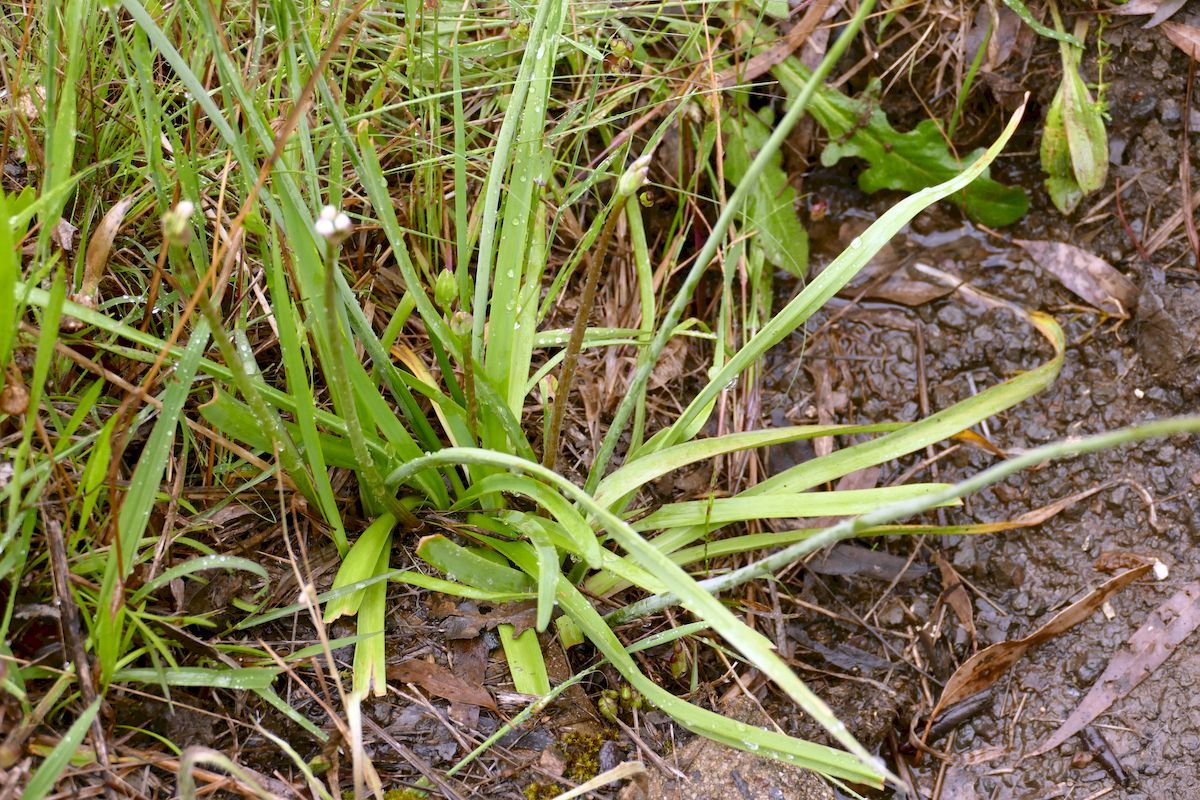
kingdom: Plantae
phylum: Tracheophyta
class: Liliopsida
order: Asparagales
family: Amaryllidaceae
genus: Nothoscordum
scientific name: Nothoscordum gracile
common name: Slender false garlic
